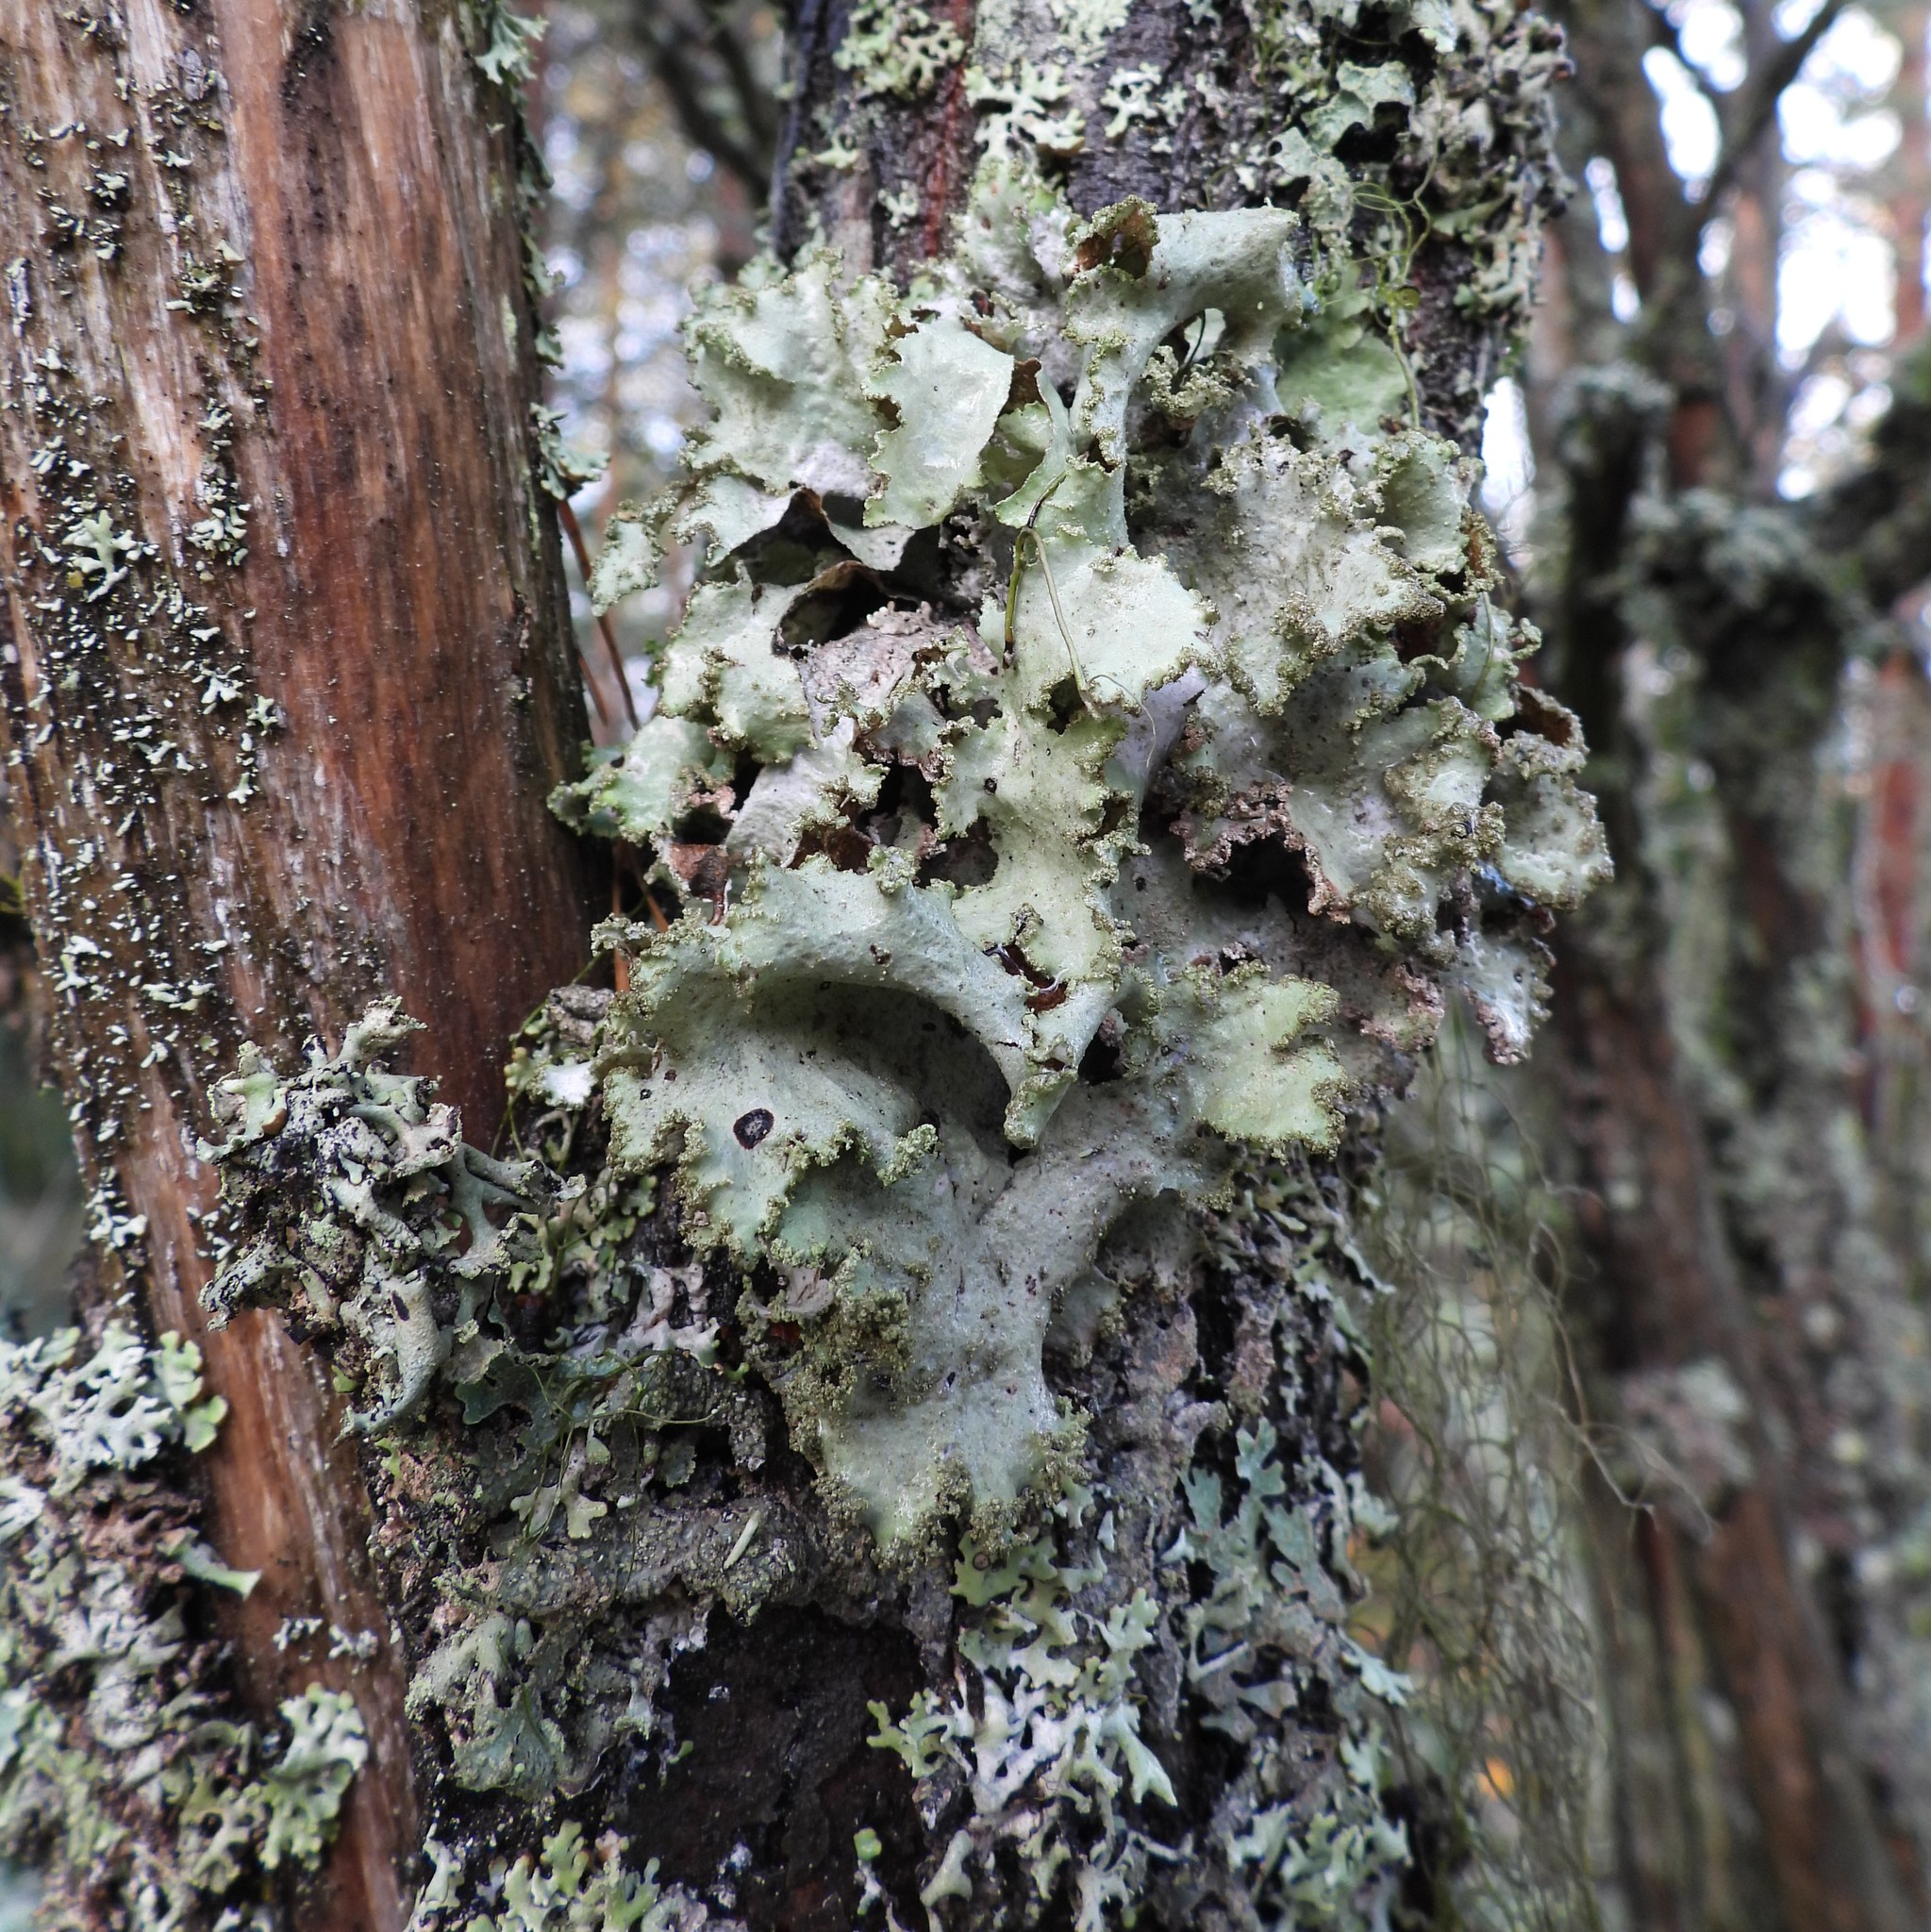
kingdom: Fungi
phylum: Ascomycota
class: Lecanoromycetes
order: Lecanorales
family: Parmeliaceae
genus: Platismatia
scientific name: Platismatia glauca
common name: Varied rag lichen
